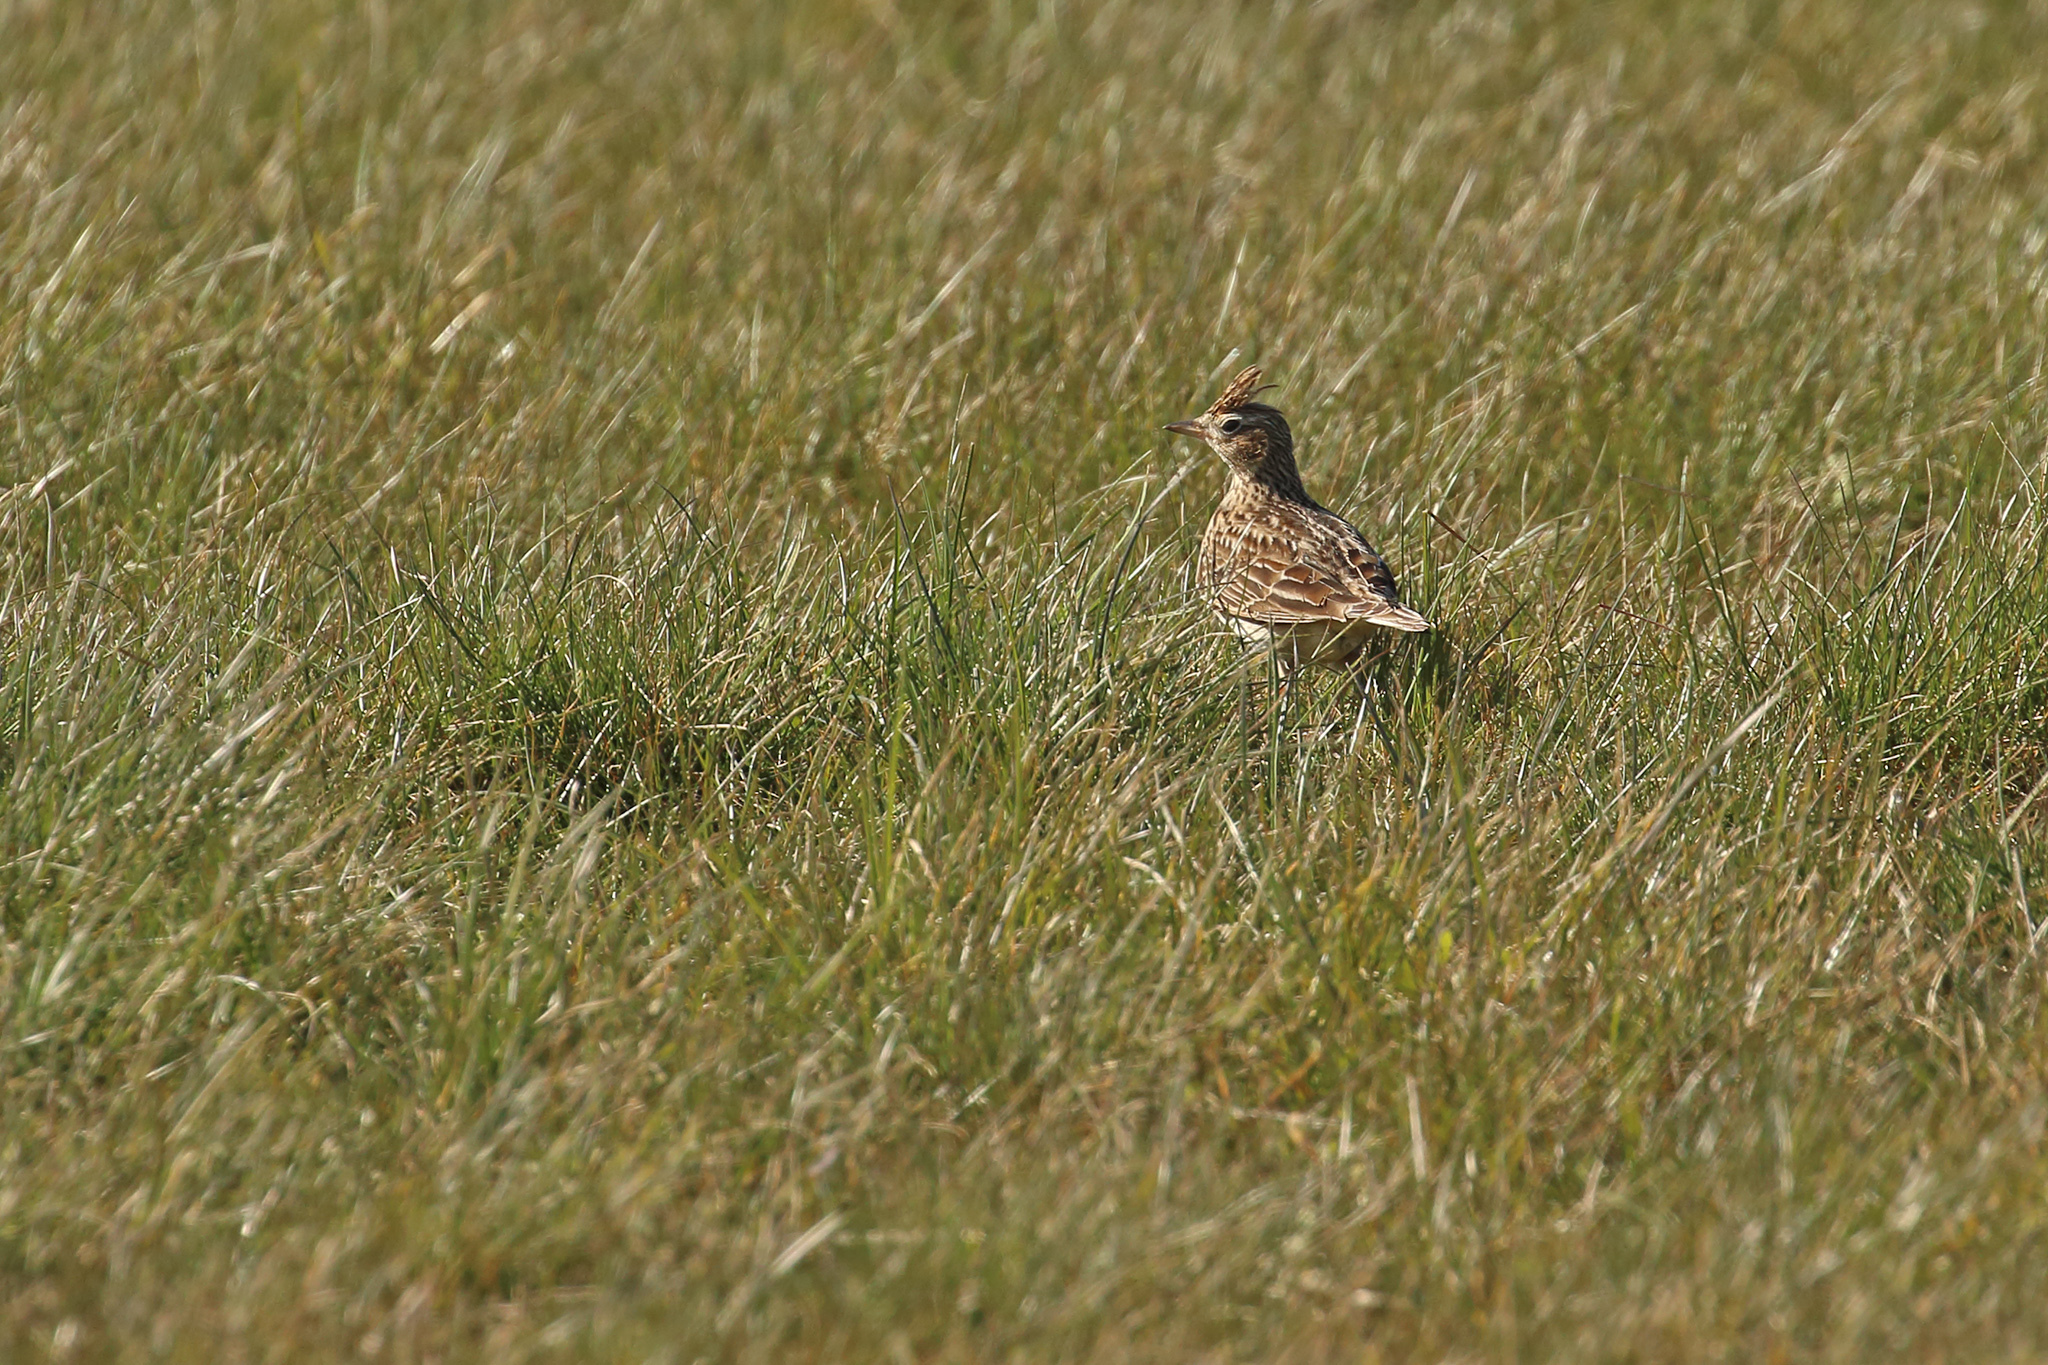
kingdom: Animalia
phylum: Chordata
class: Aves
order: Passeriformes
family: Alaudidae
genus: Alauda
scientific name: Alauda arvensis
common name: Eurasian skylark
